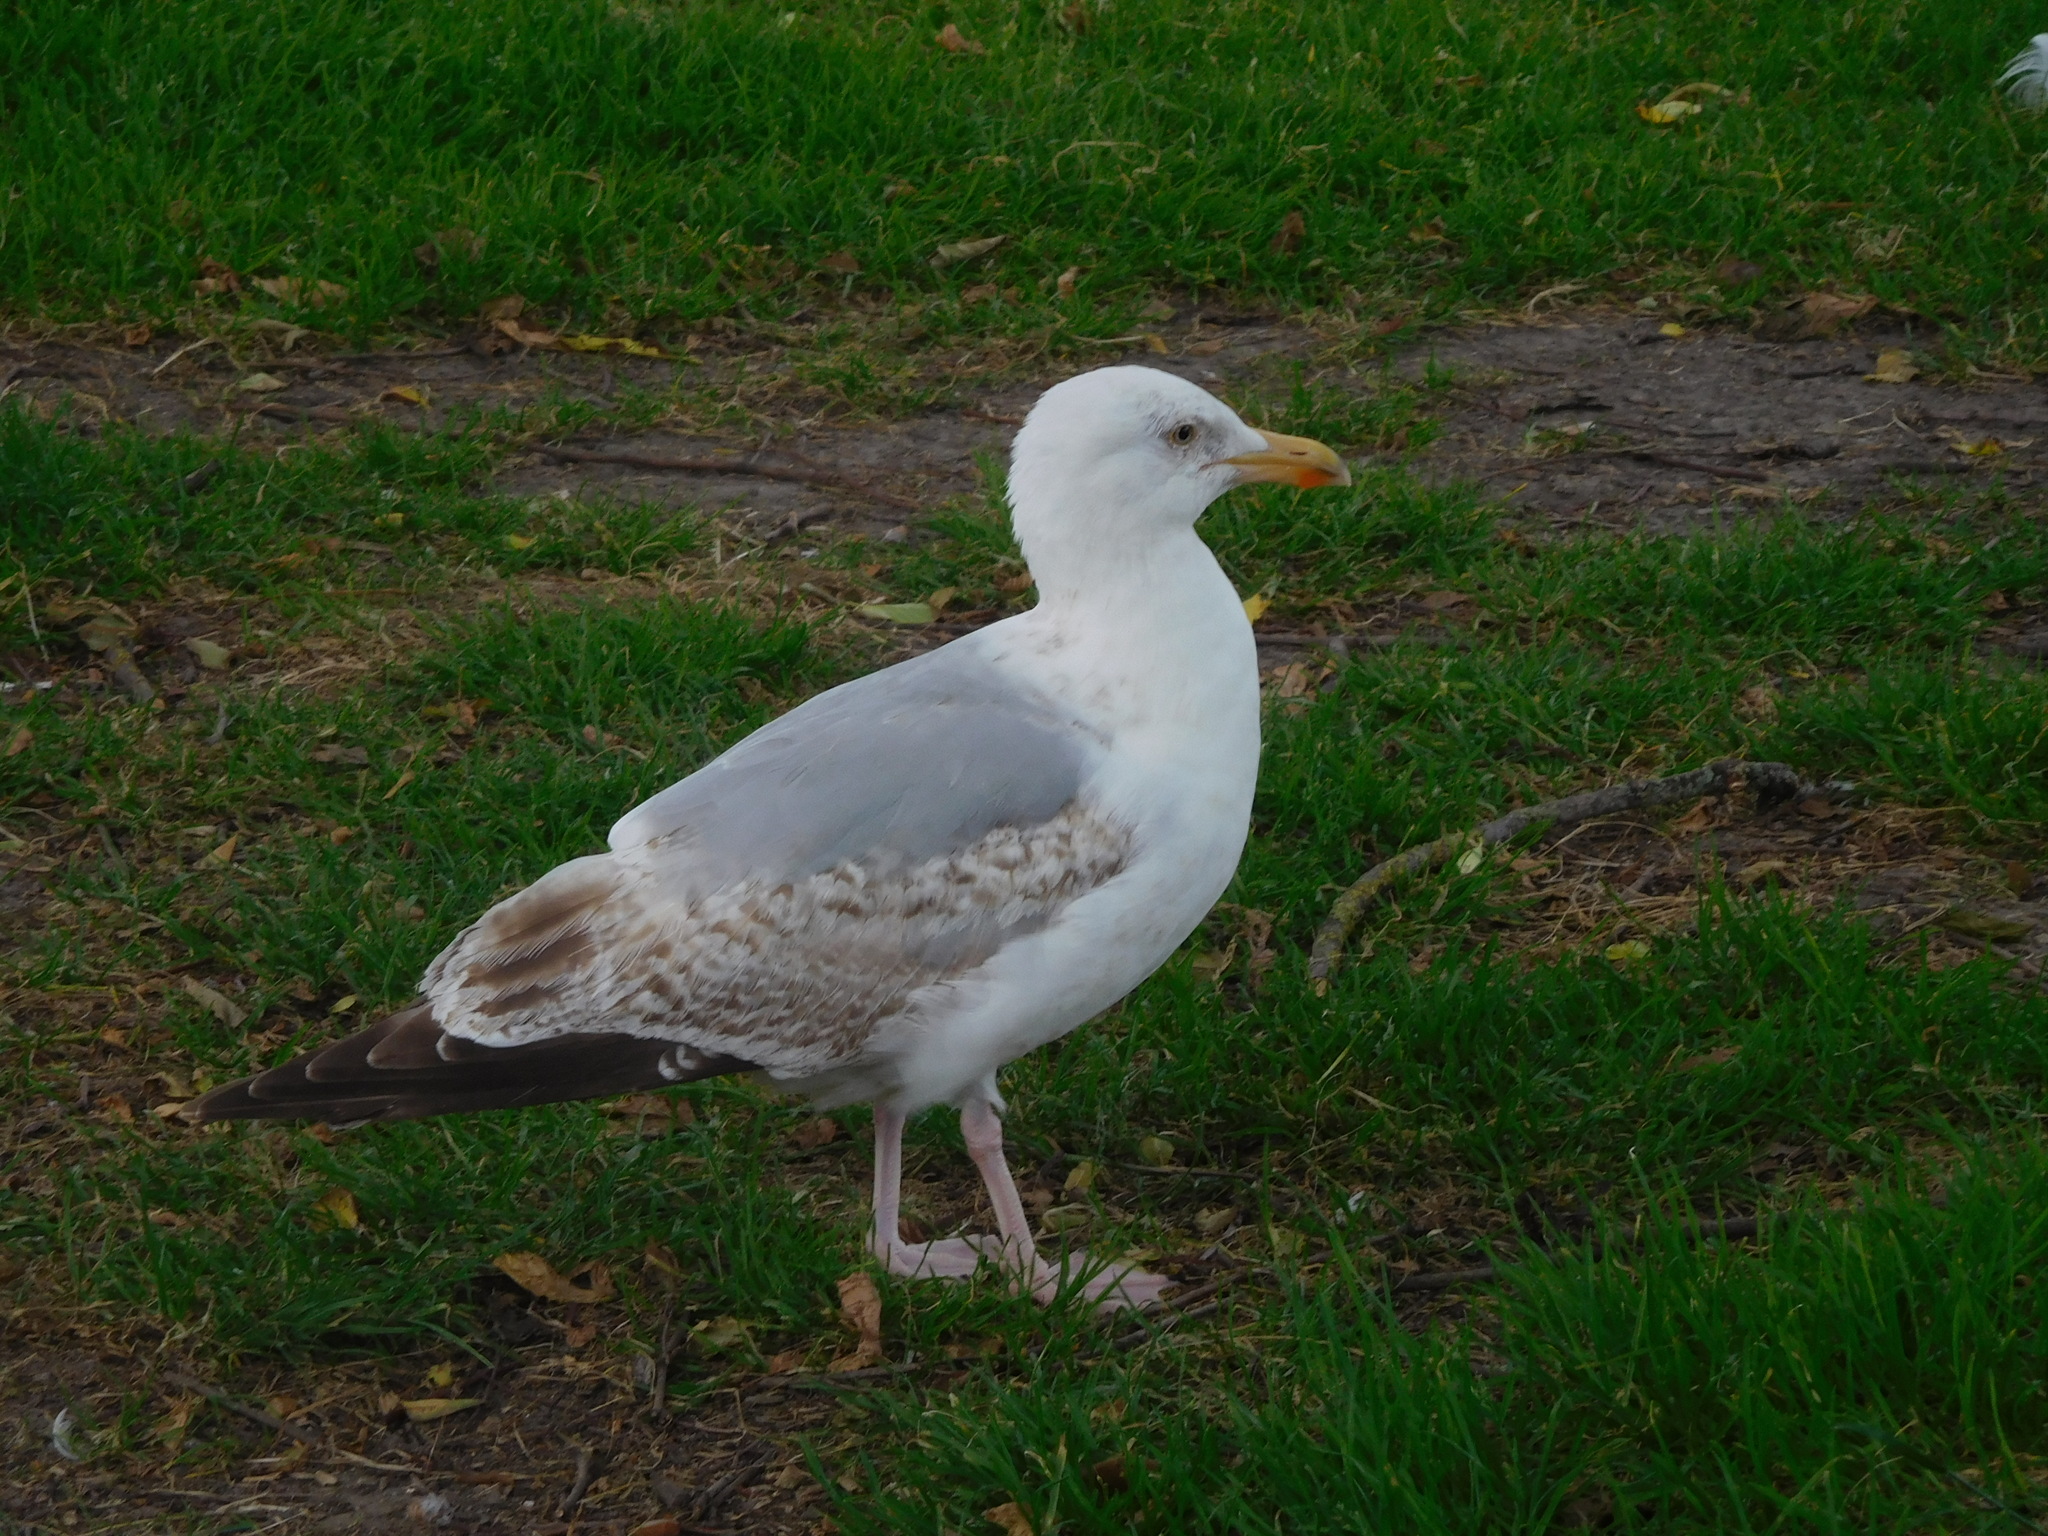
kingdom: Animalia
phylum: Chordata
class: Aves
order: Charadriiformes
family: Laridae
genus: Larus
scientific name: Larus argentatus
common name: Herring gull
